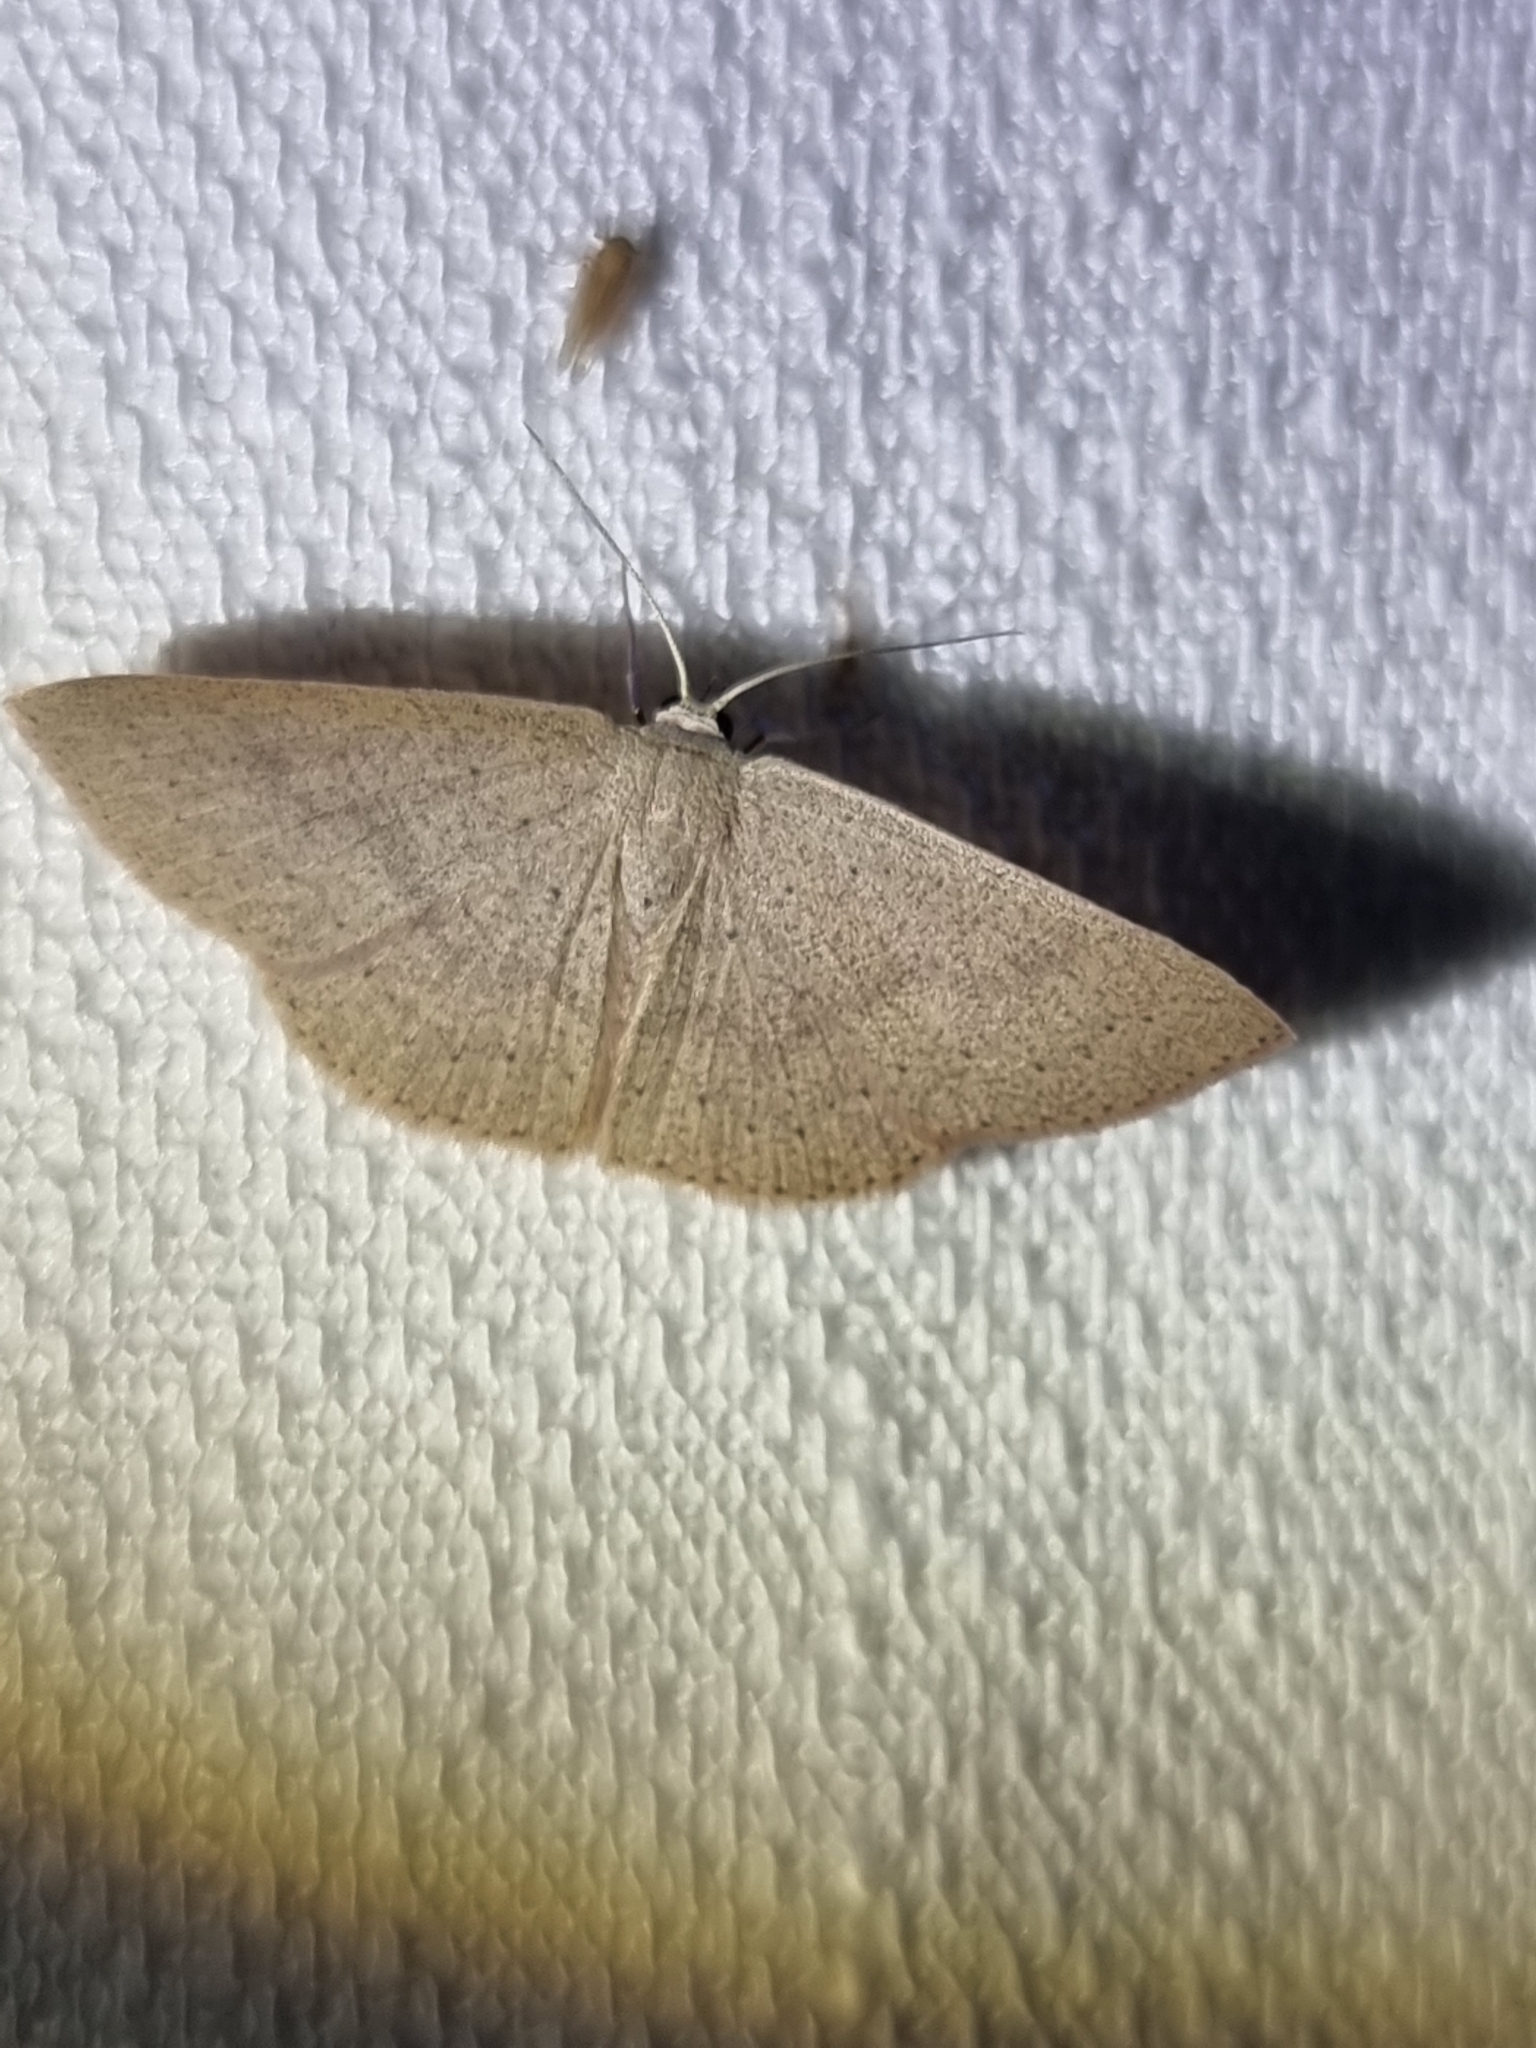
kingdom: Animalia
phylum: Arthropoda
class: Insecta
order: Lepidoptera
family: Geometridae
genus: Cyclophora
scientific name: Cyclophora obstataria
